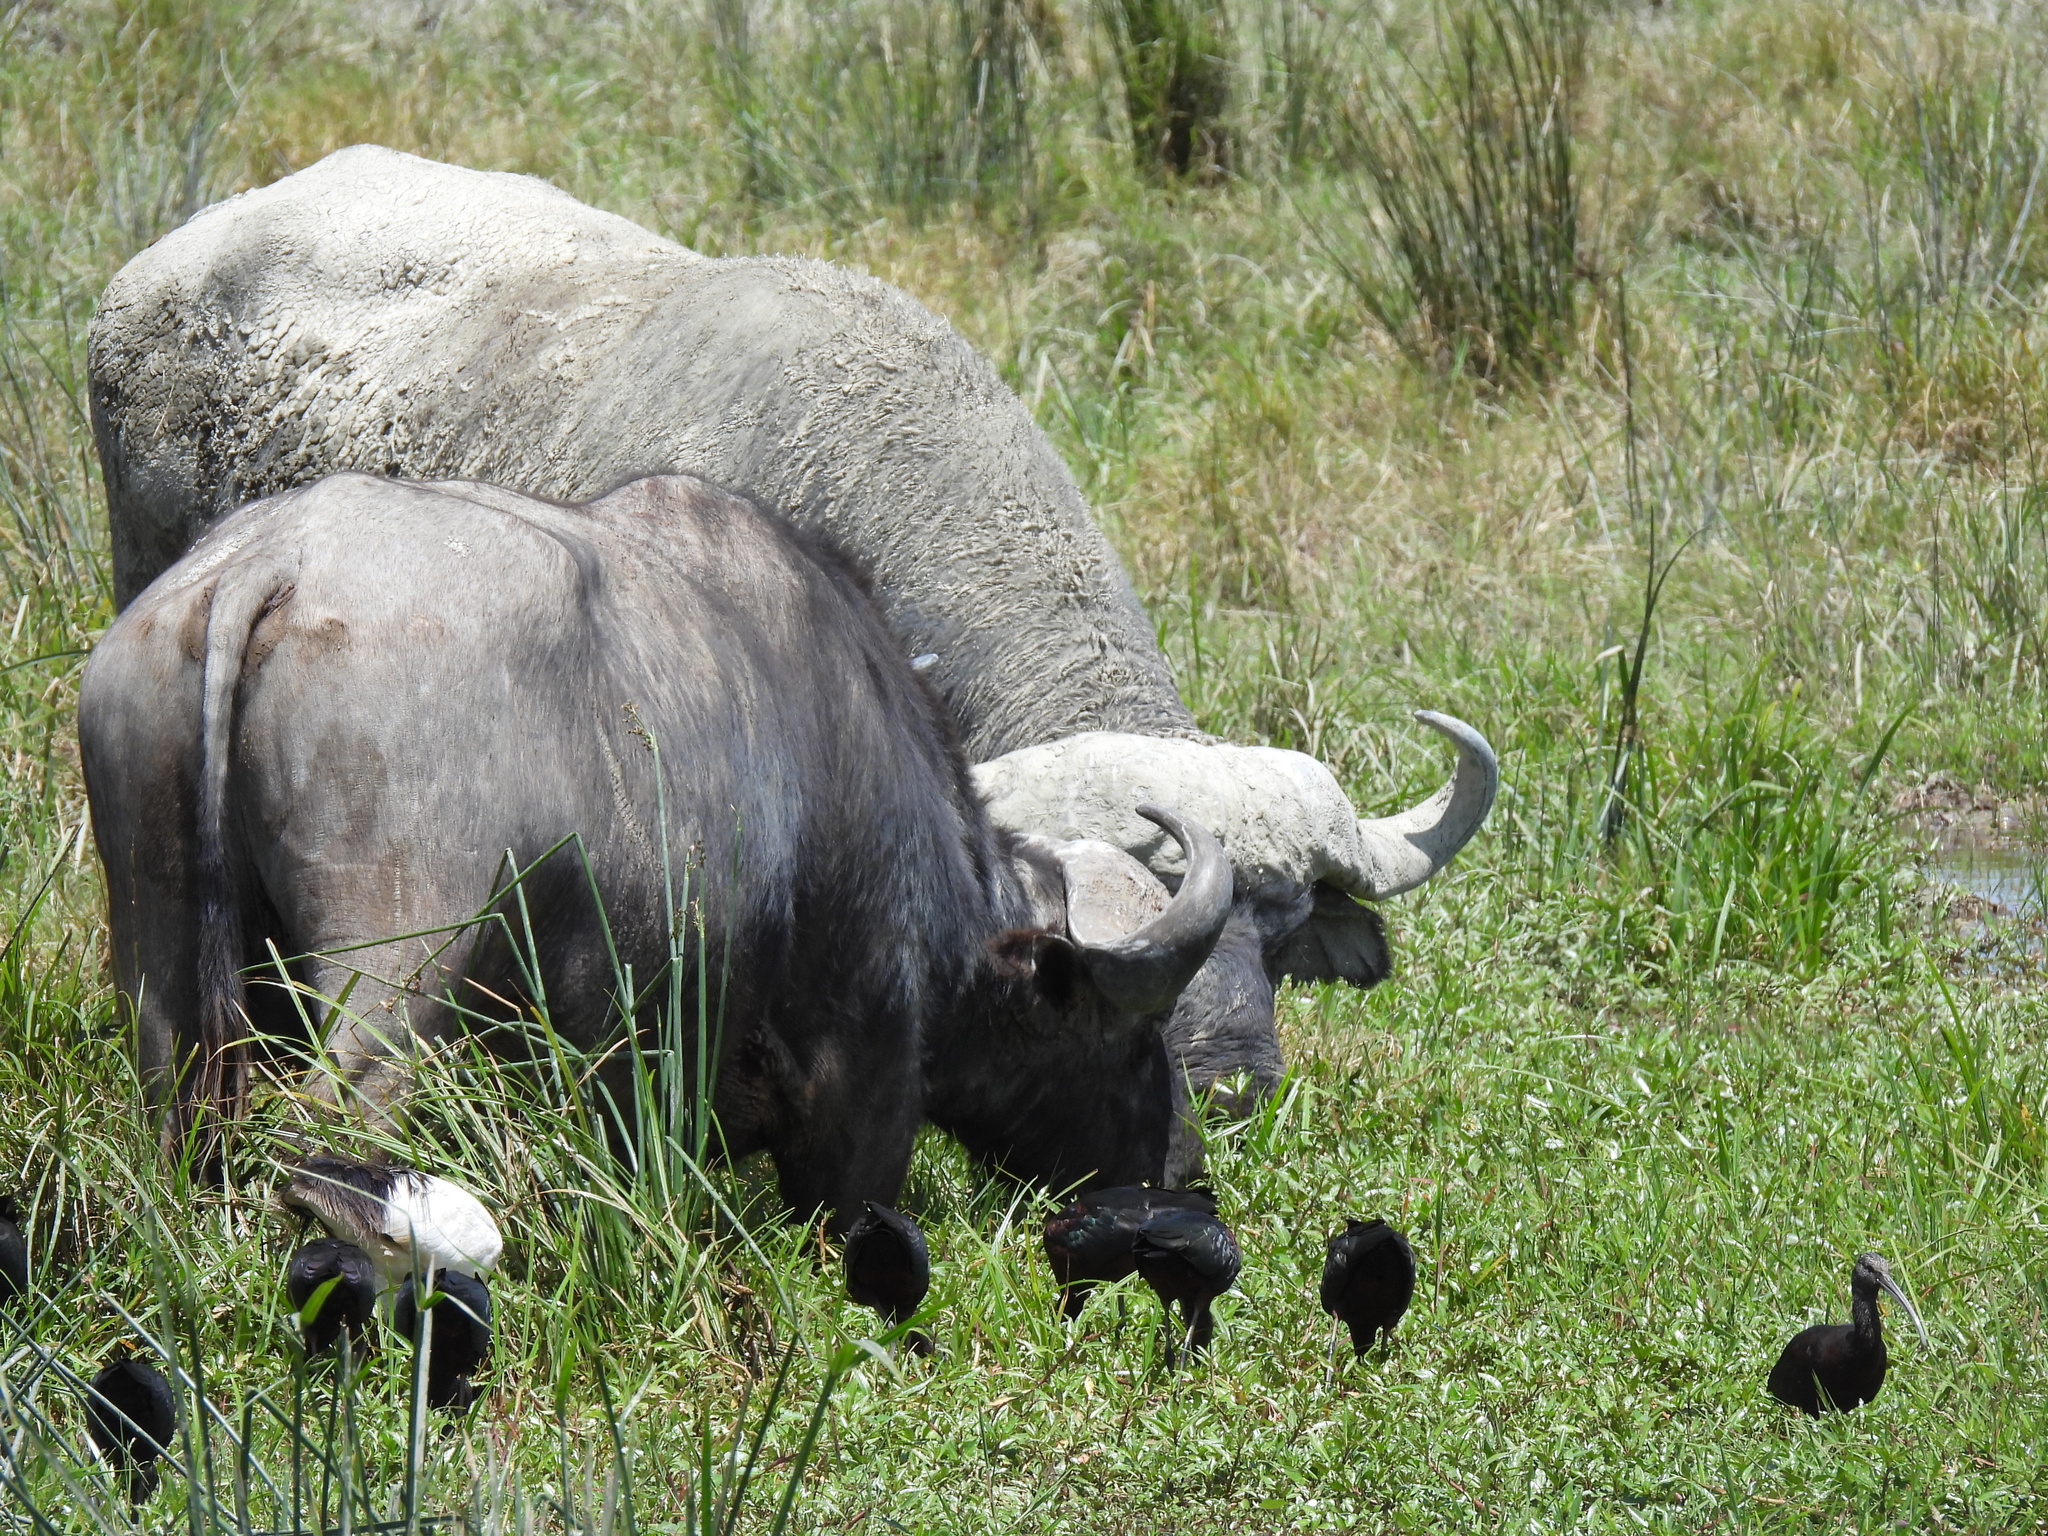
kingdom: Animalia
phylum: Chordata
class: Mammalia
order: Artiodactyla
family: Bovidae
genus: Syncerus
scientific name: Syncerus caffer
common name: African buffalo
